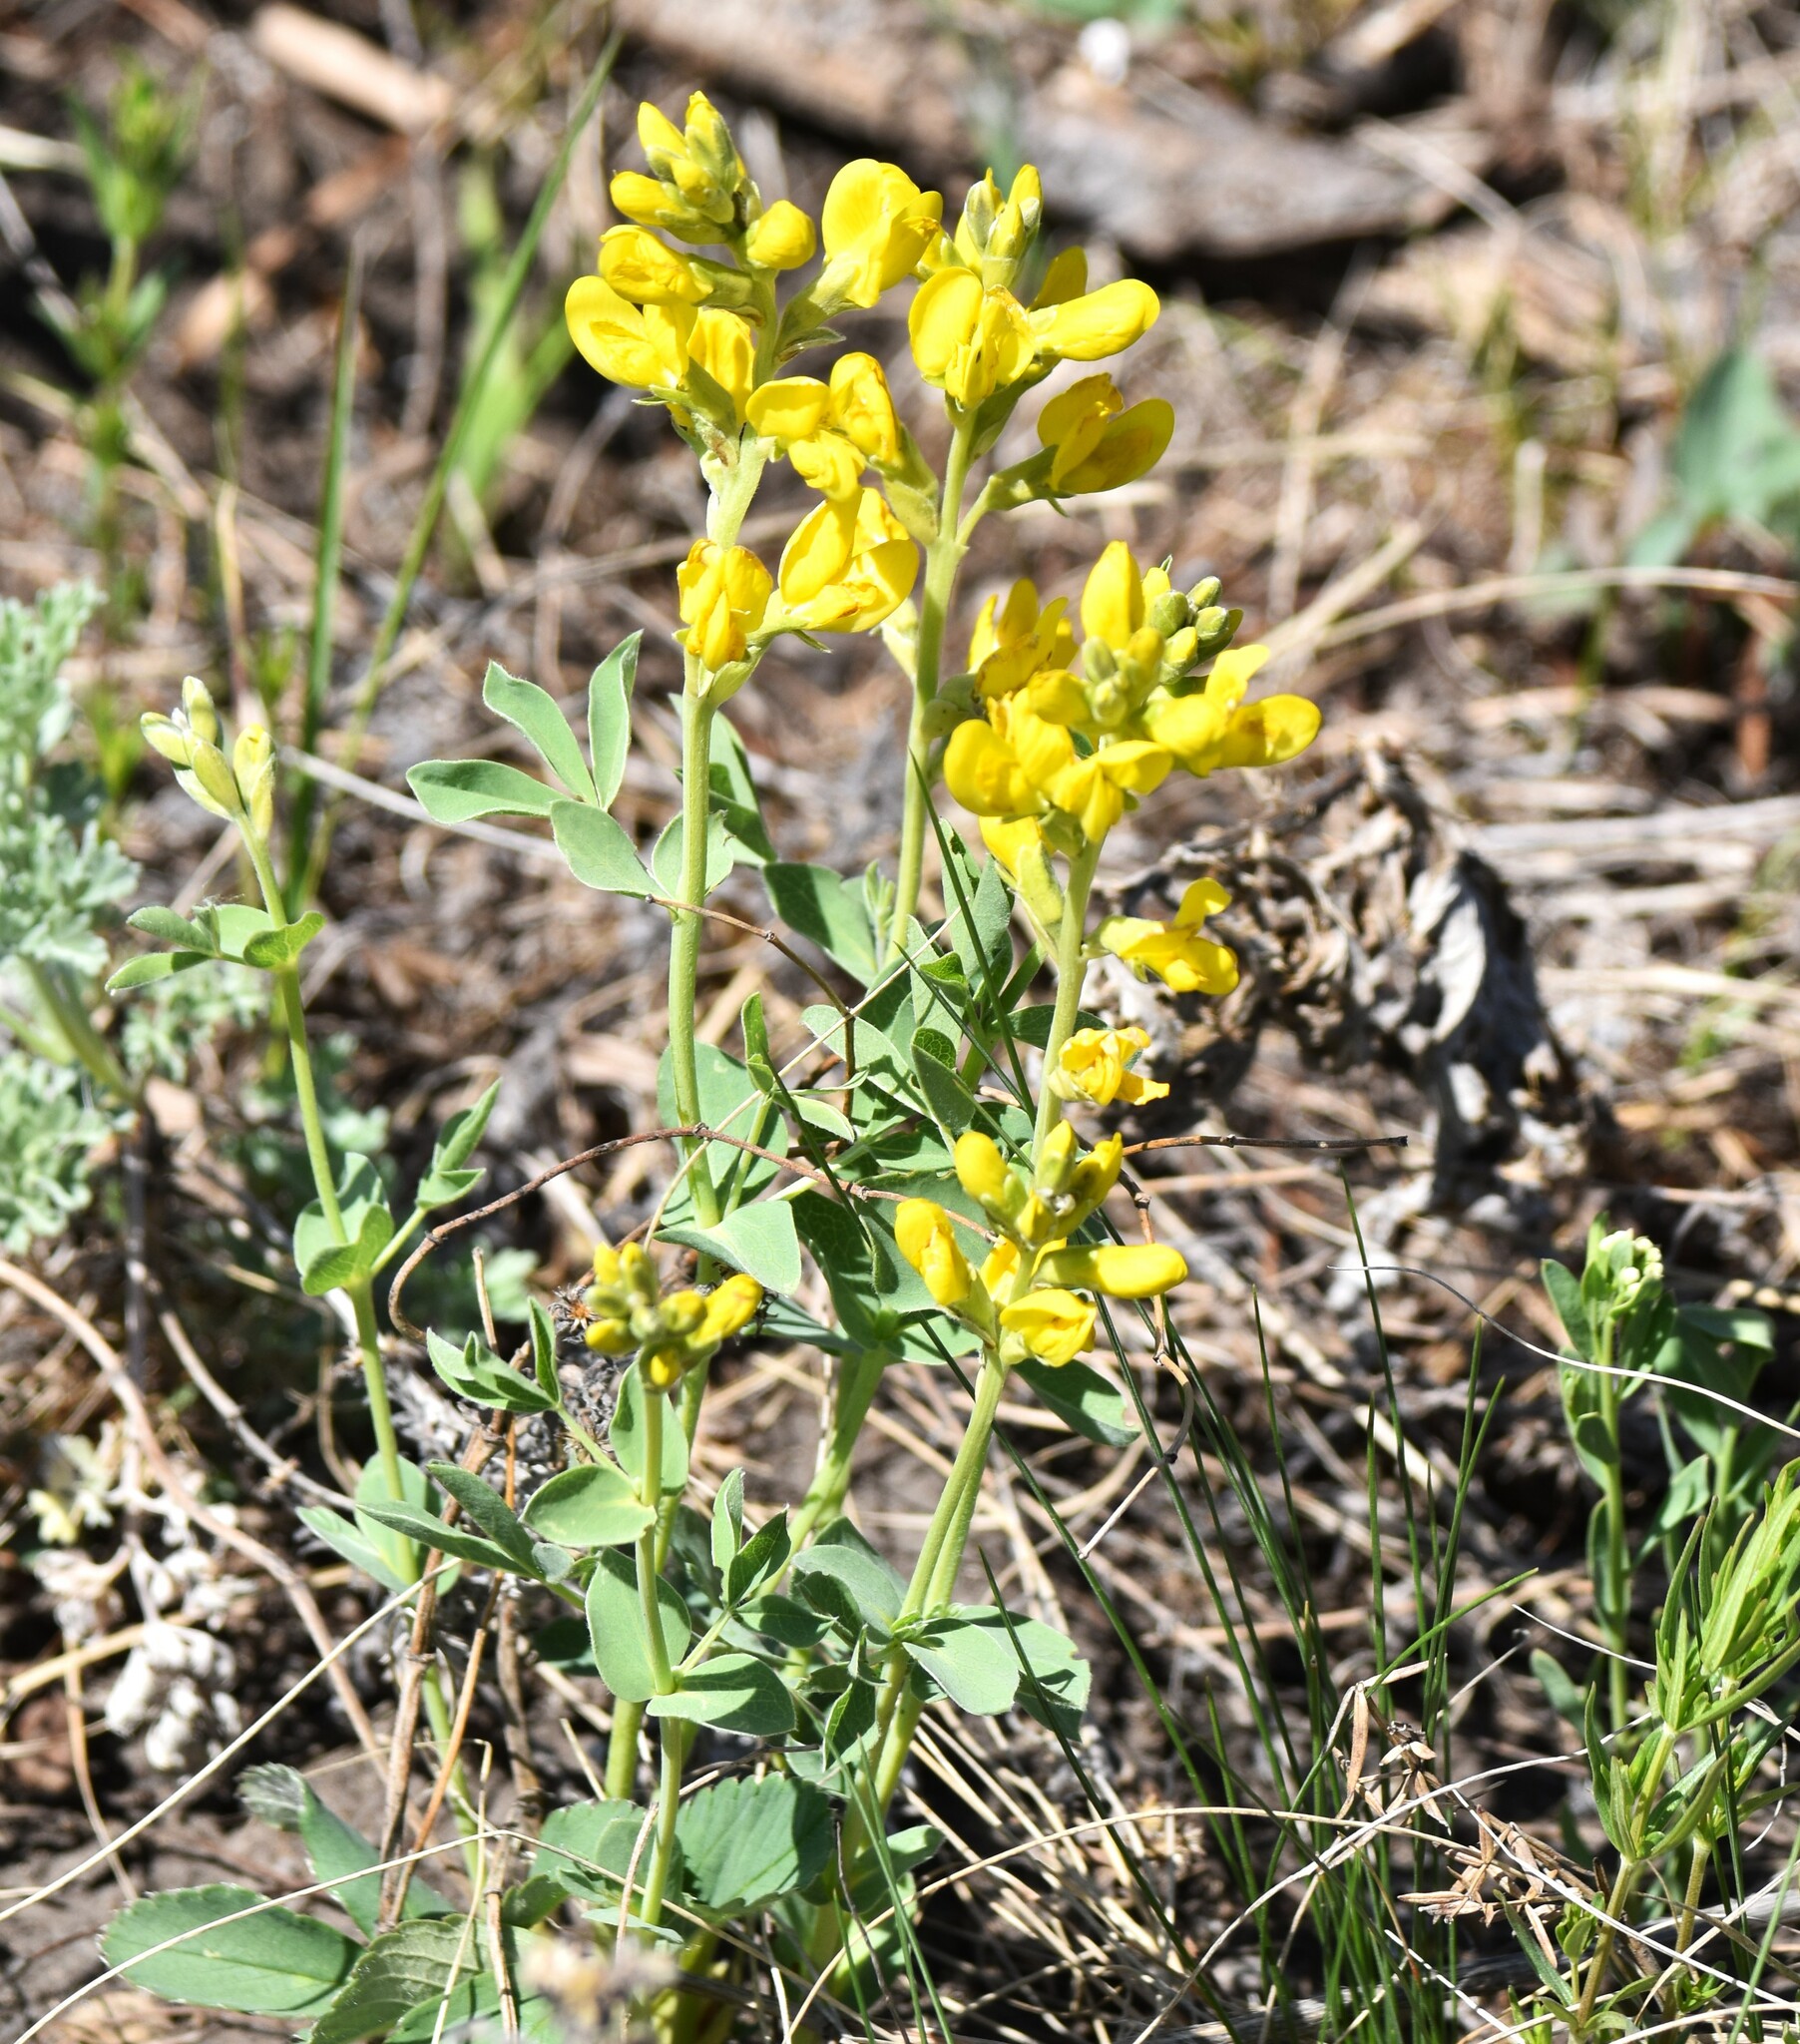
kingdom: Plantae
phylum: Tracheophyta
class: Magnoliopsida
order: Fabales
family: Fabaceae
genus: Thermopsis
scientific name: Thermopsis rhombifolia
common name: Circle-pod-pea
